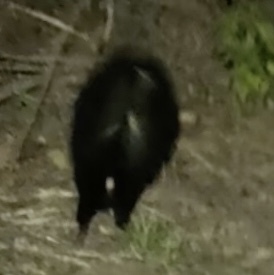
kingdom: Animalia
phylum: Chordata
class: Mammalia
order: Carnivora
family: Mephitidae
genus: Mephitis
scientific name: Mephitis mephitis
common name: Striped skunk
